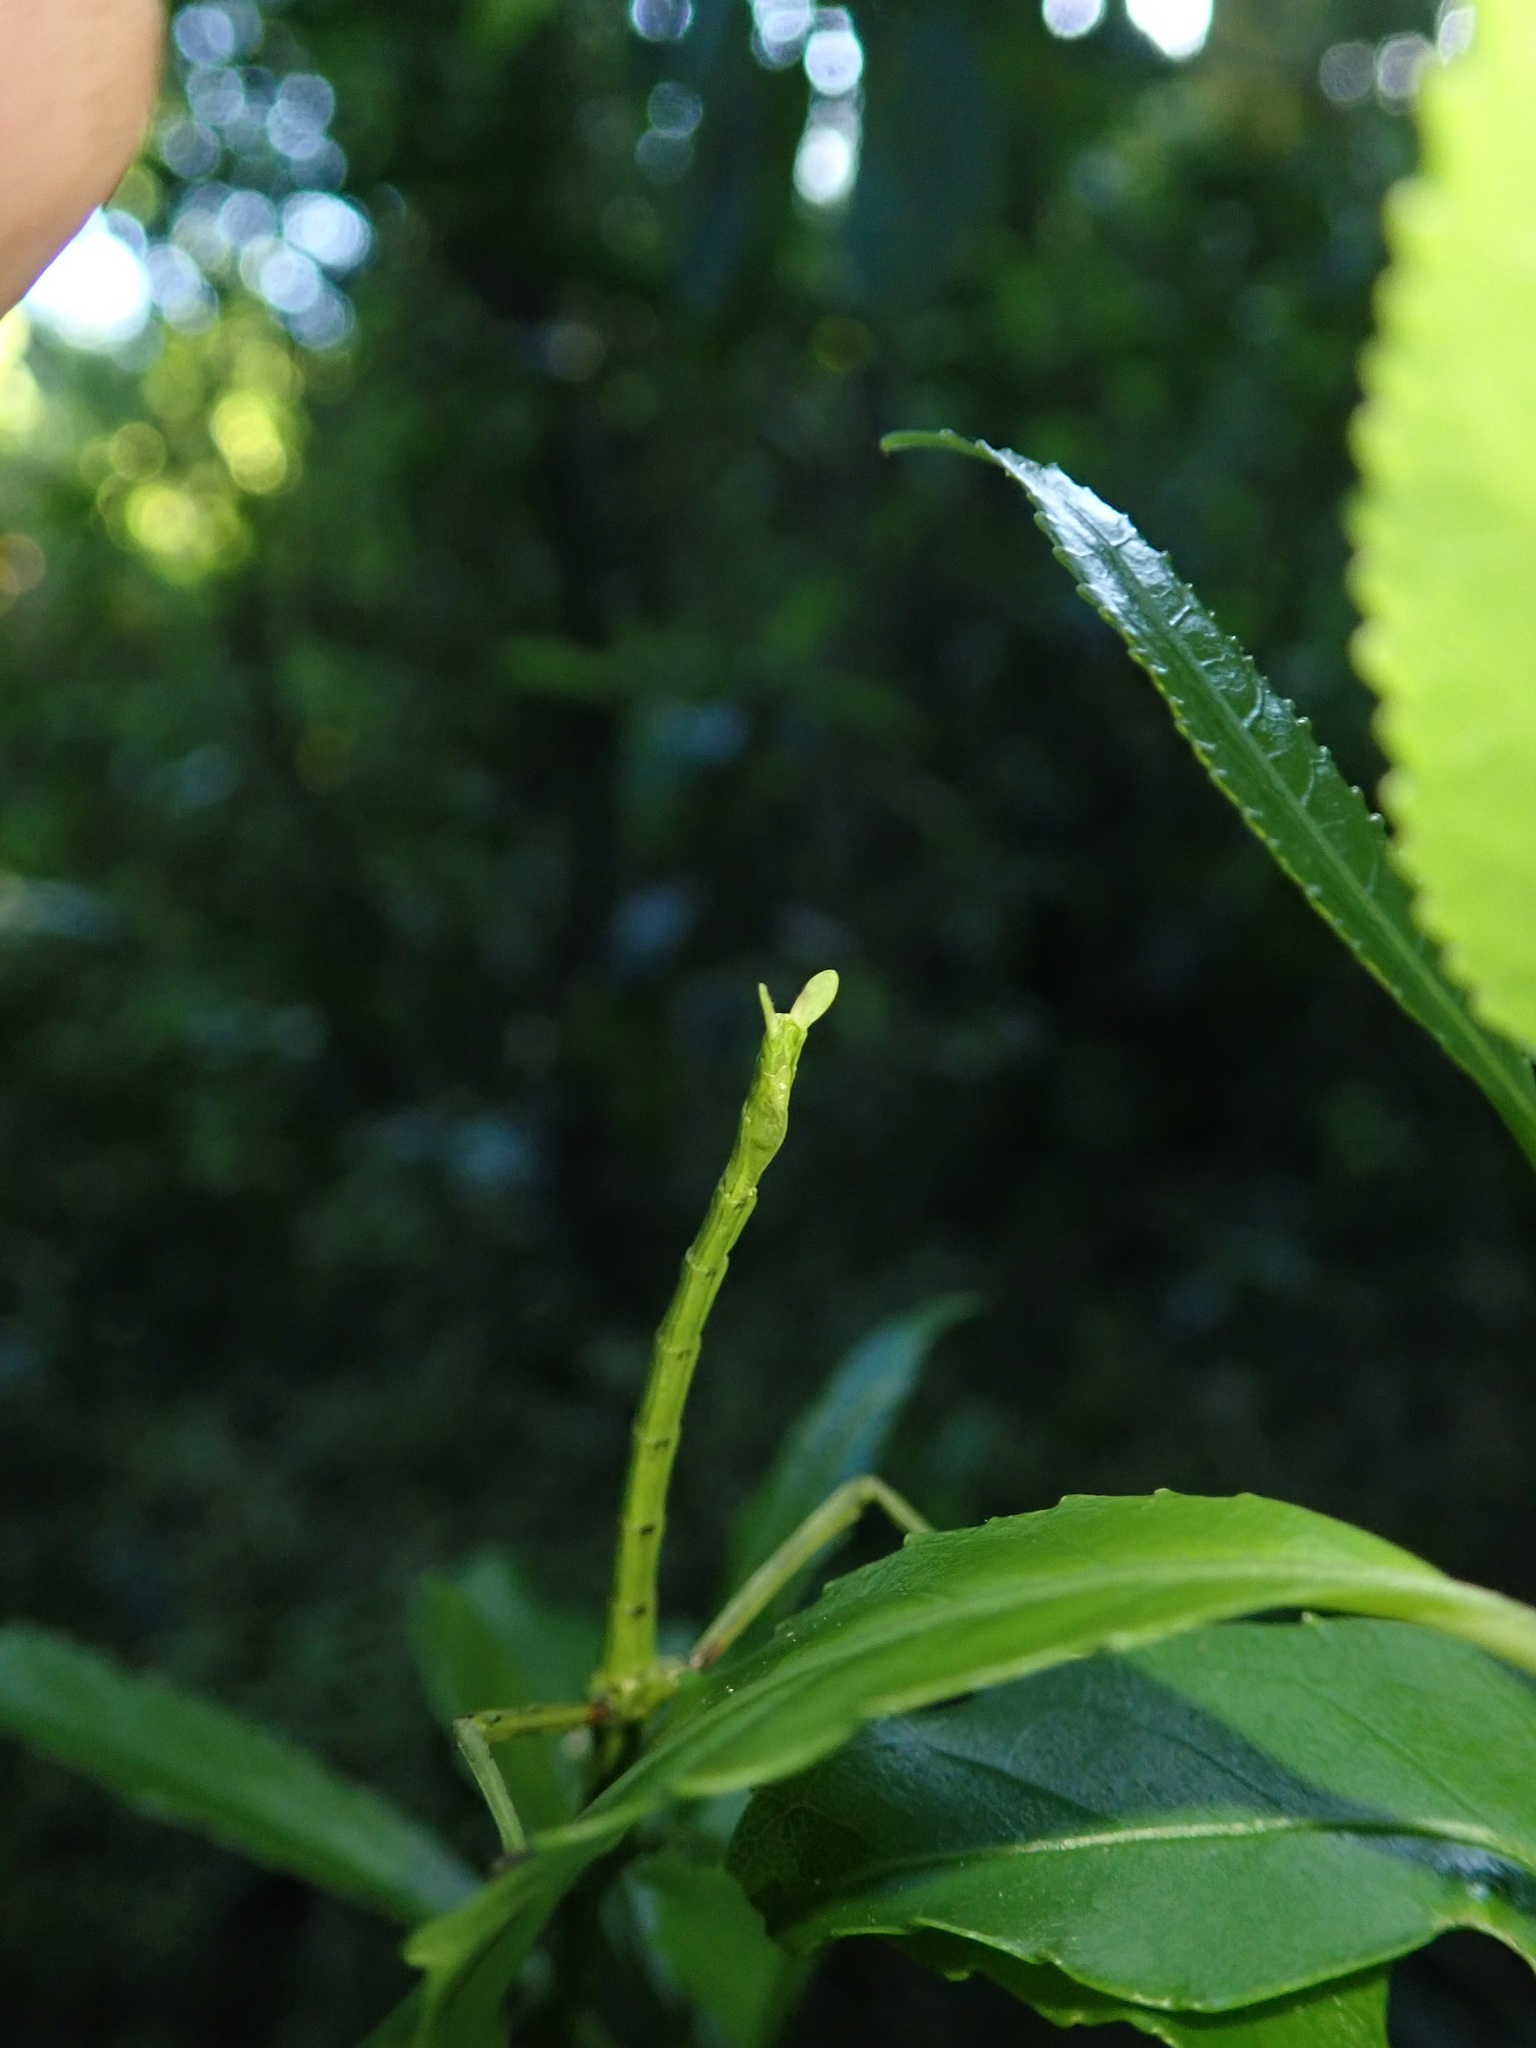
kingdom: Animalia
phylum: Arthropoda
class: Insecta
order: Phasmida
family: Phasmatidae
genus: Acanthoxyla
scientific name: Acanthoxyla prasina
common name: Black-spined stick insect
